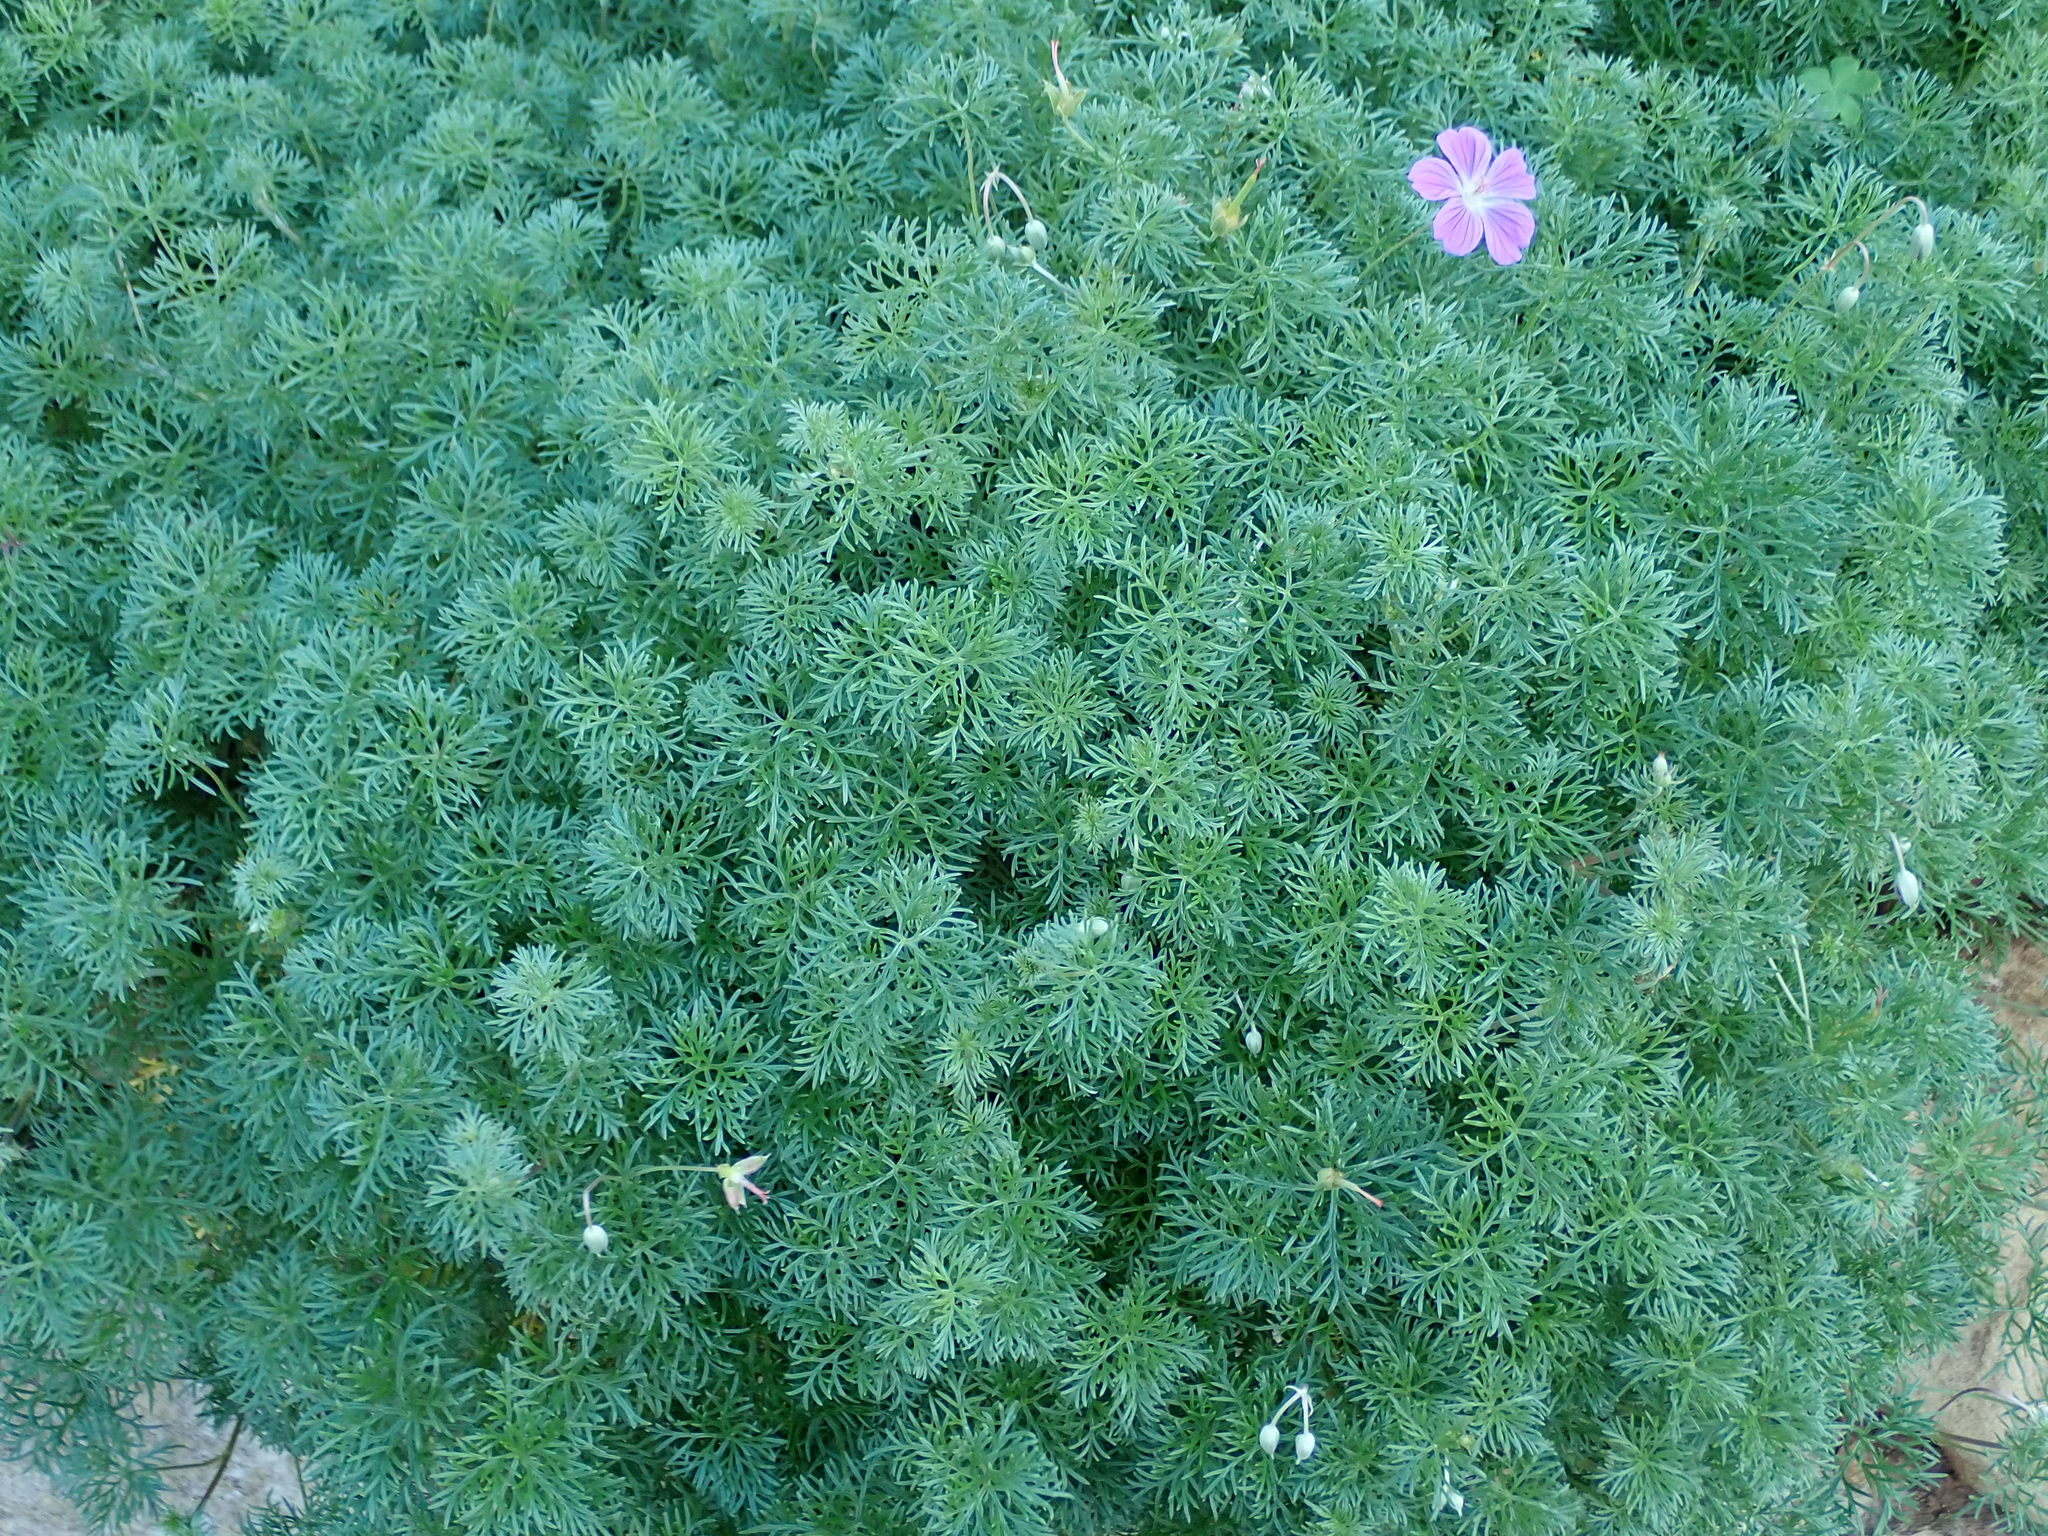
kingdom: Plantae
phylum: Tracheophyta
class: Magnoliopsida
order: Geraniales
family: Geraniaceae
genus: Geranium
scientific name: Geranium incanum
